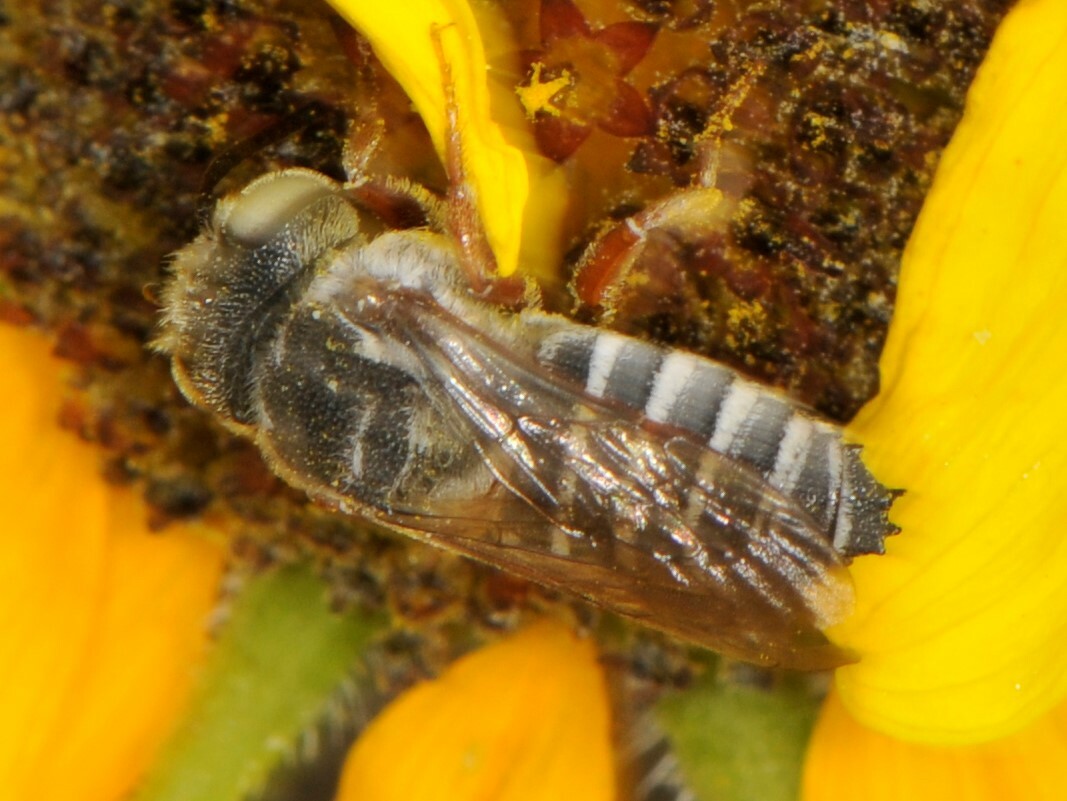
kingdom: Animalia
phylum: Arthropoda
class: Insecta
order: Hymenoptera
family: Megachilidae
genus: Coelioxys
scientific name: Coelioxys
